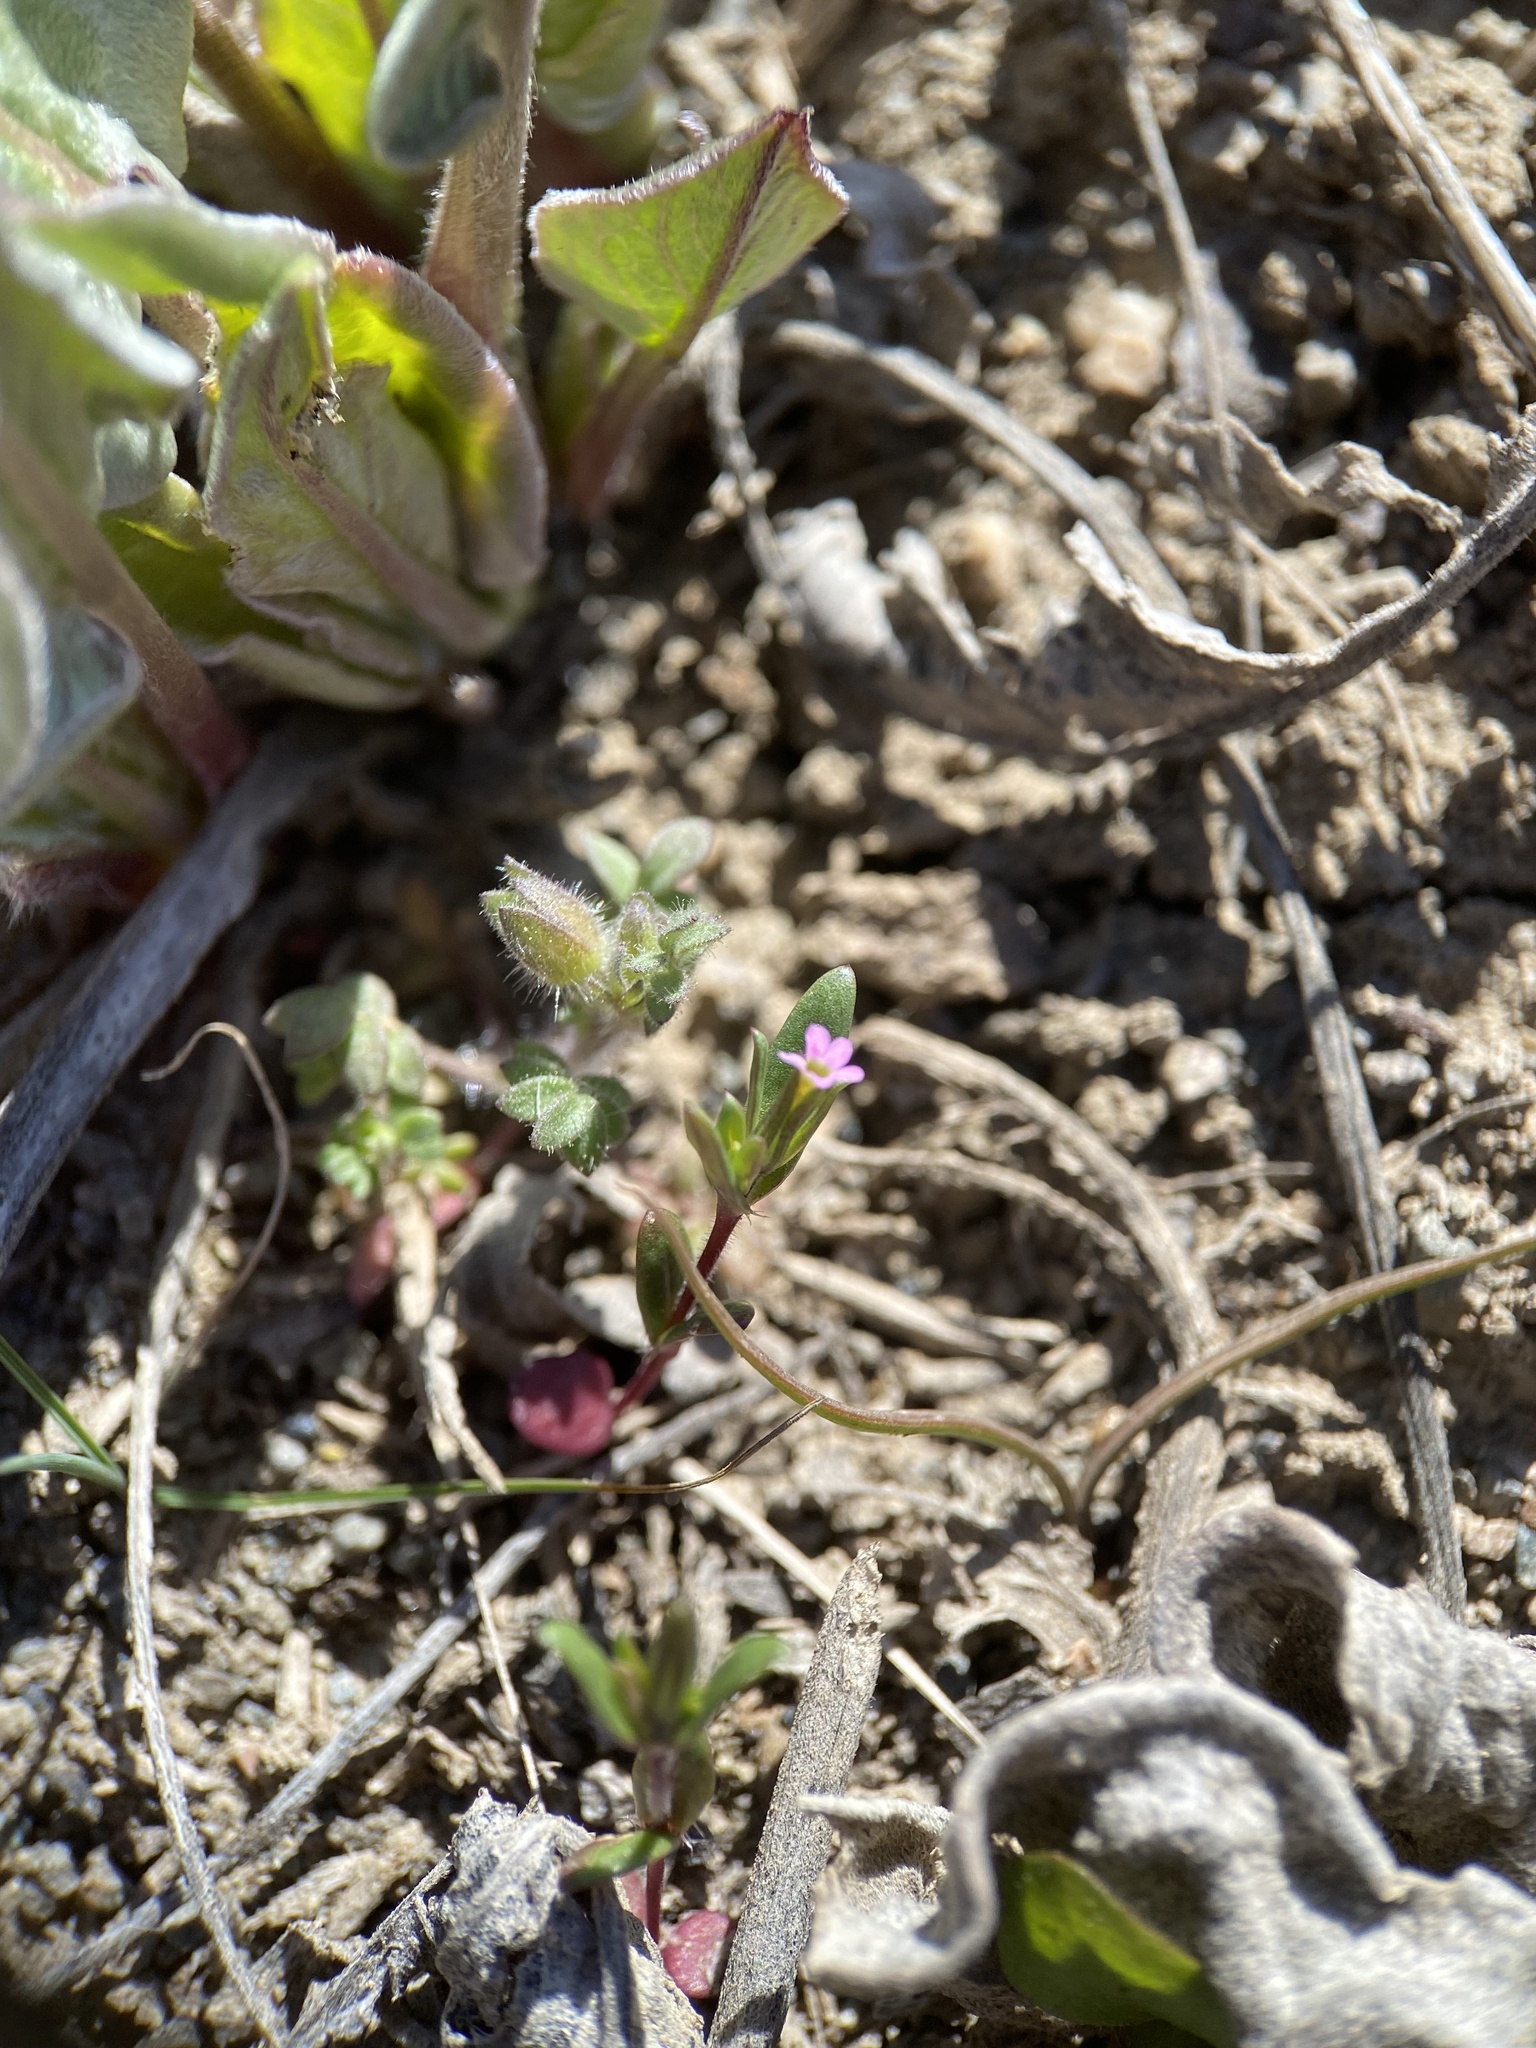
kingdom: Plantae
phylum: Tracheophyta
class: Magnoliopsida
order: Ericales
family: Polemoniaceae
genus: Phlox
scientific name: Phlox gracilis
